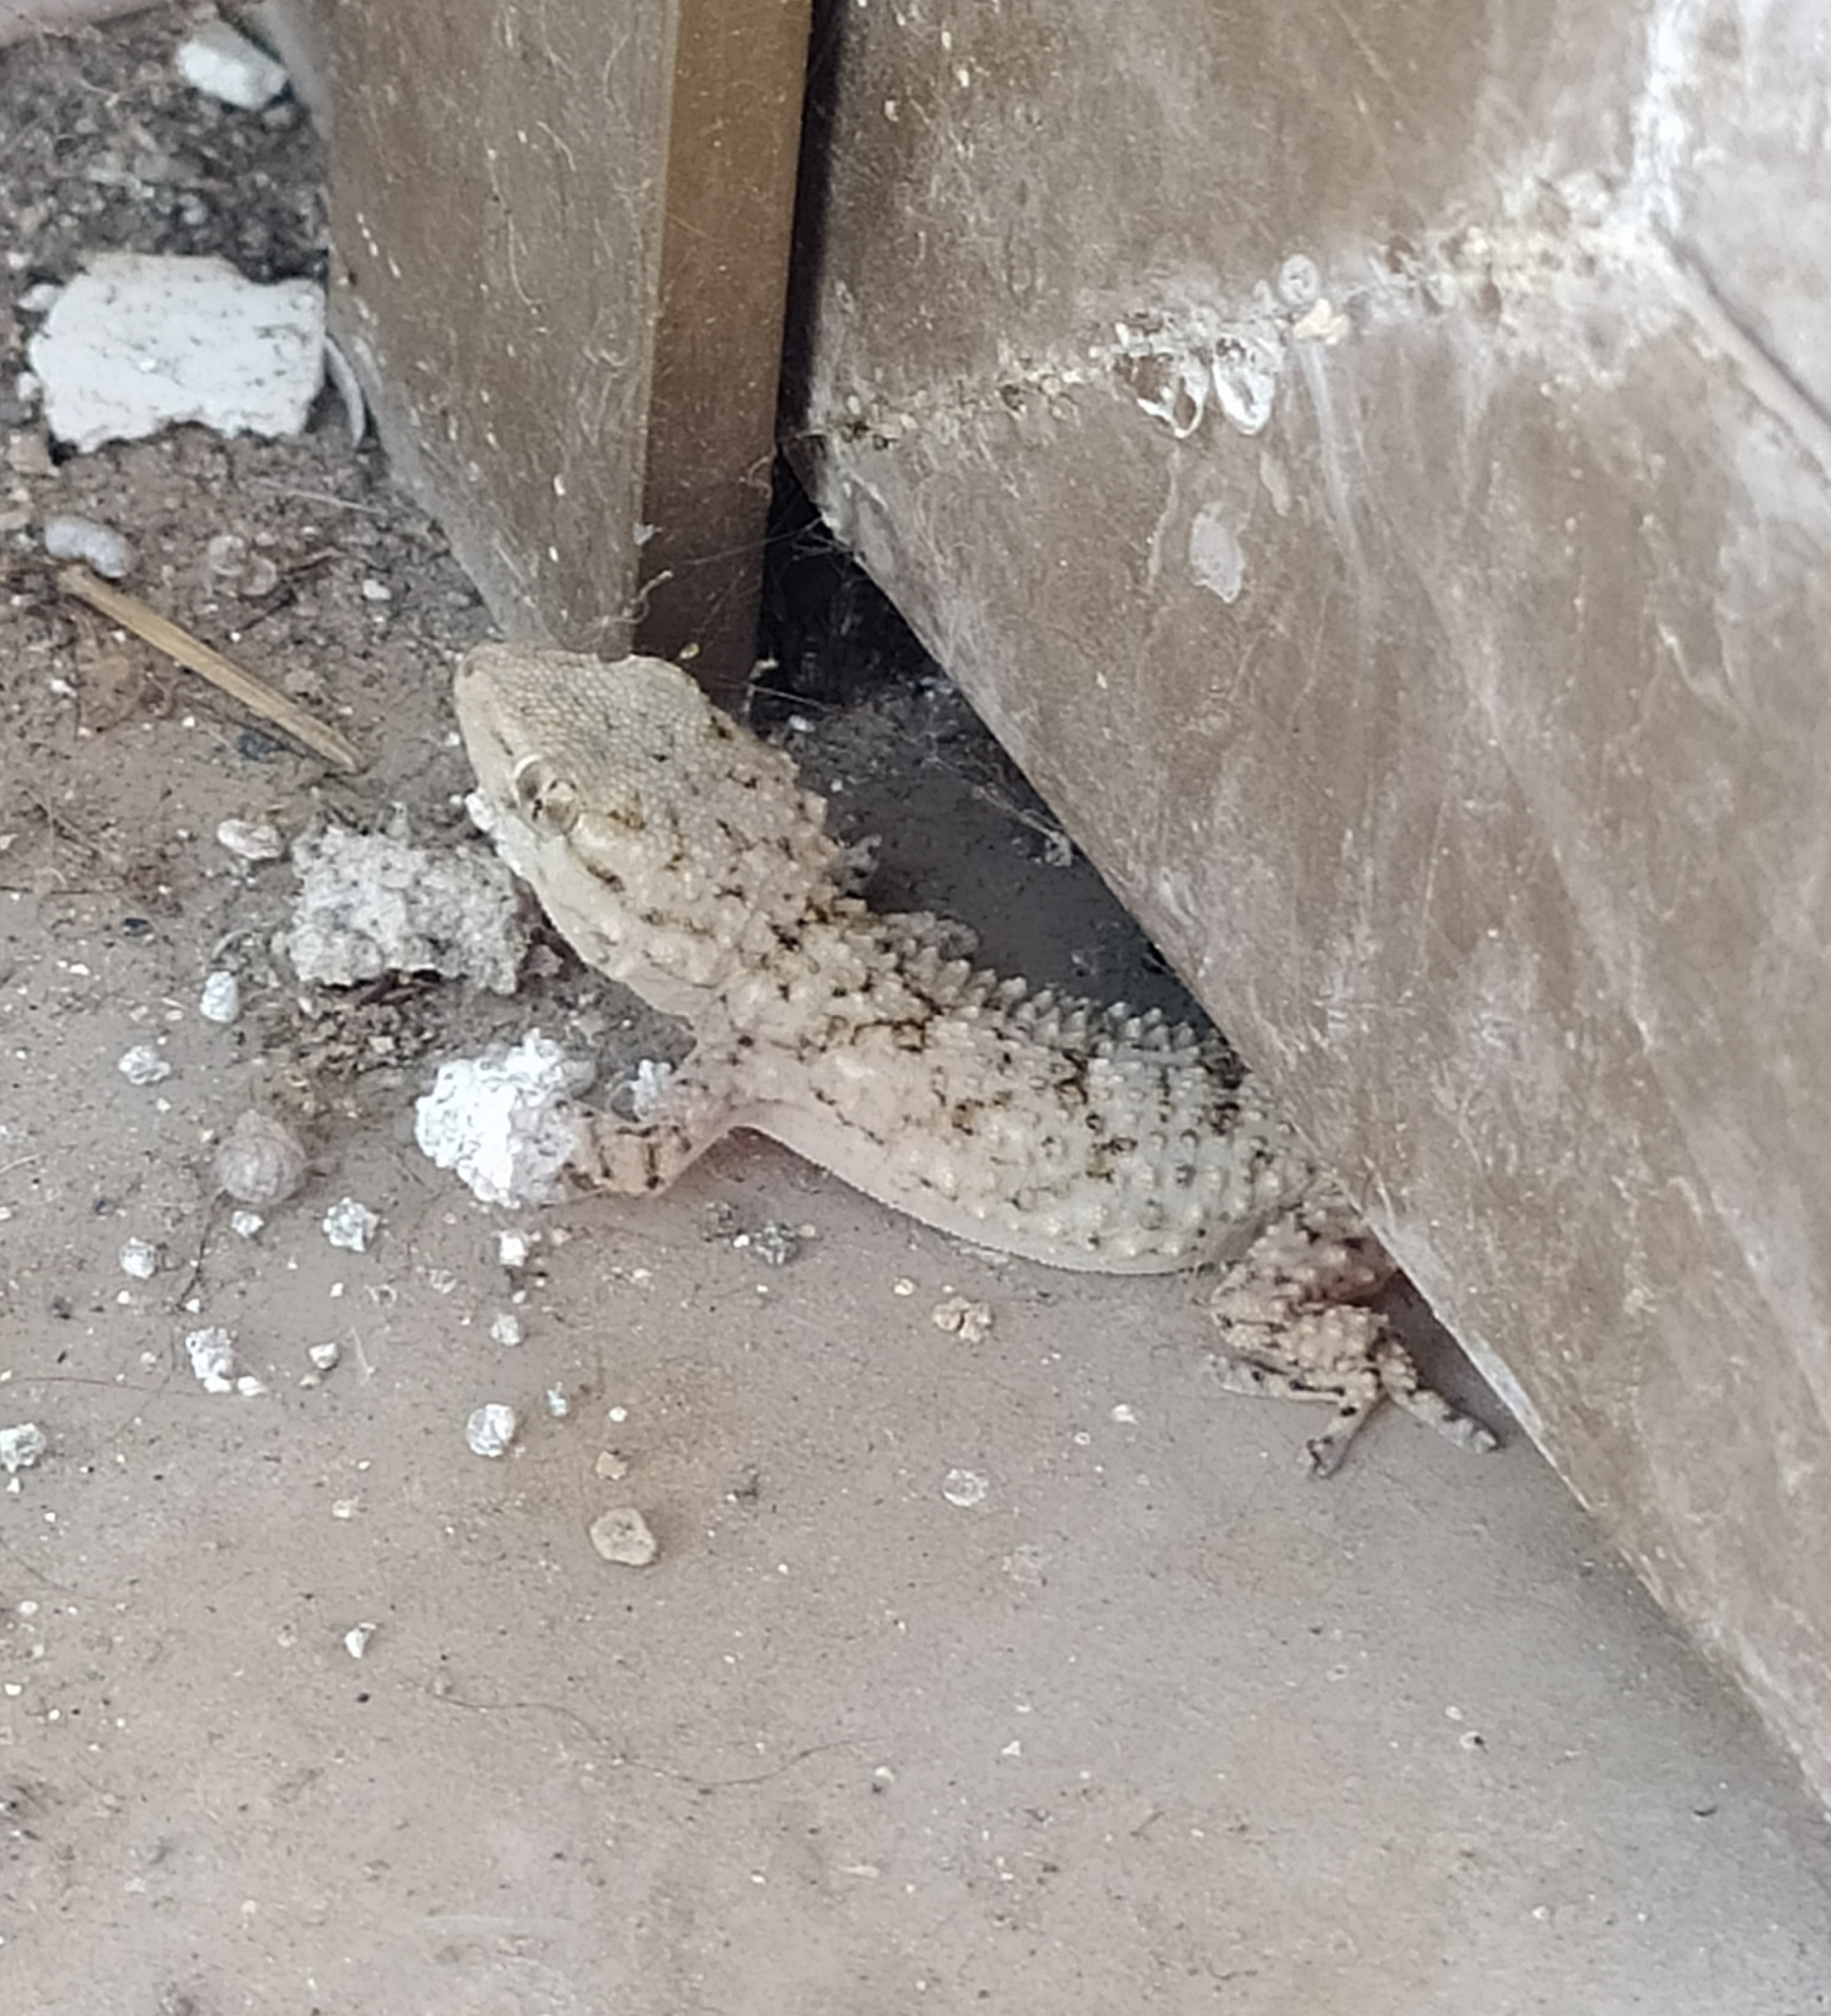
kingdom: Animalia
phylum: Chordata
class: Squamata
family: Phyllodactylidae
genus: Tarentola
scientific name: Tarentola mauritanica
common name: Moorish gecko
